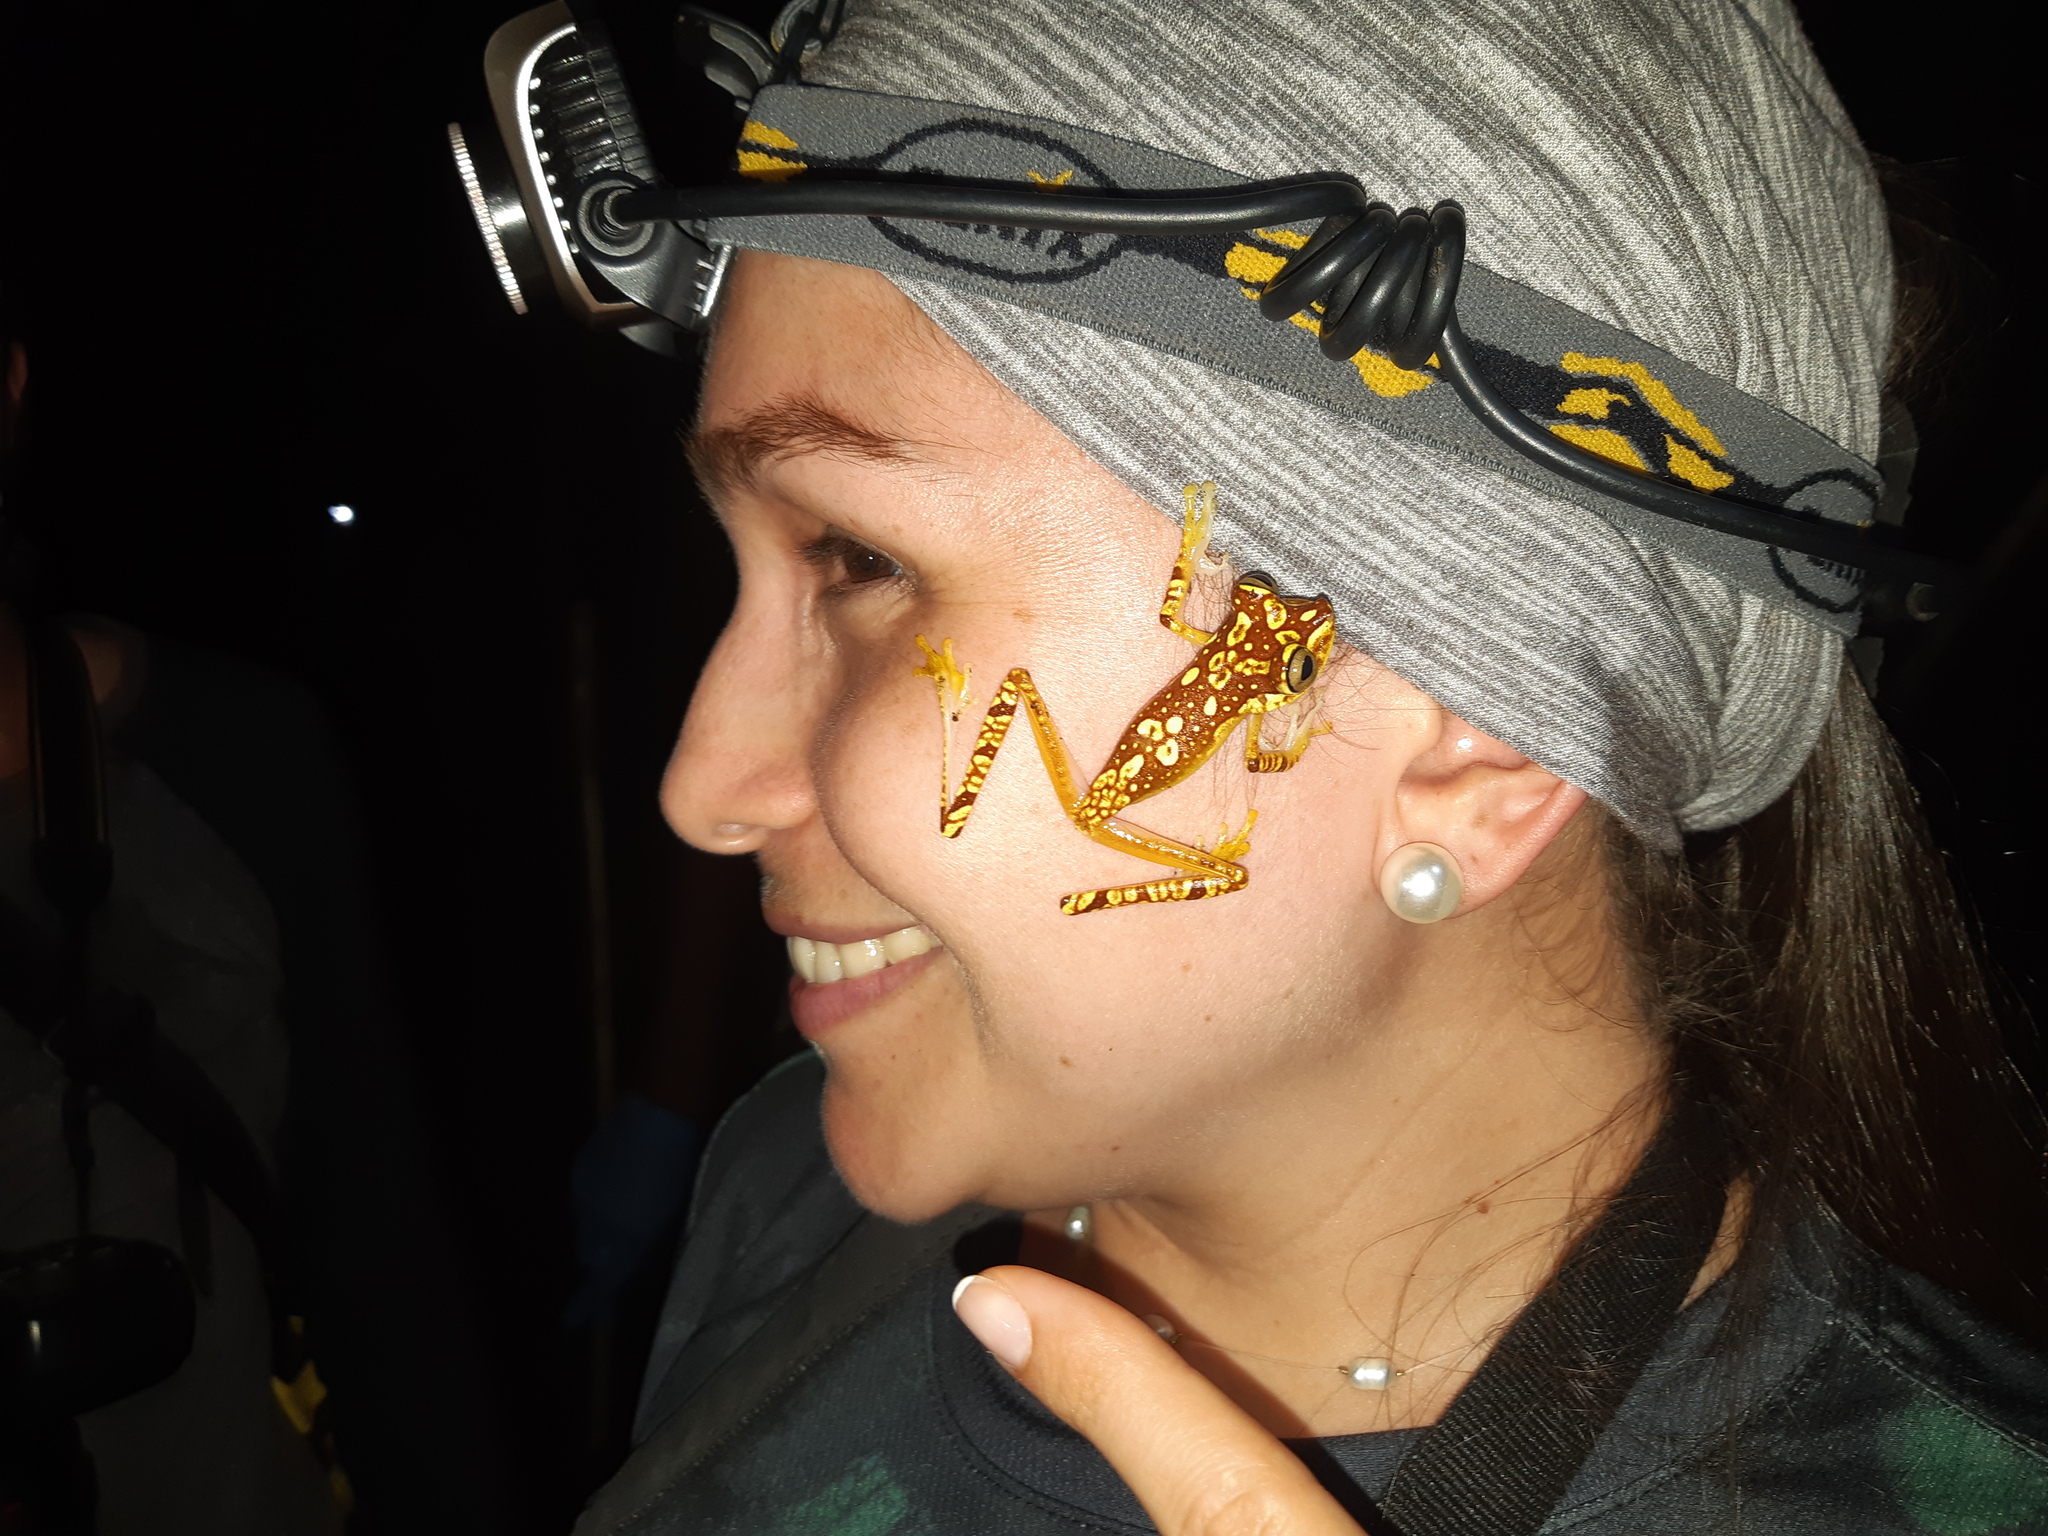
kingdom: Animalia
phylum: Chordata
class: Amphibia
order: Anura
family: Hylidae
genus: Boana
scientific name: Boana picturata
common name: Imbabura treefrog
